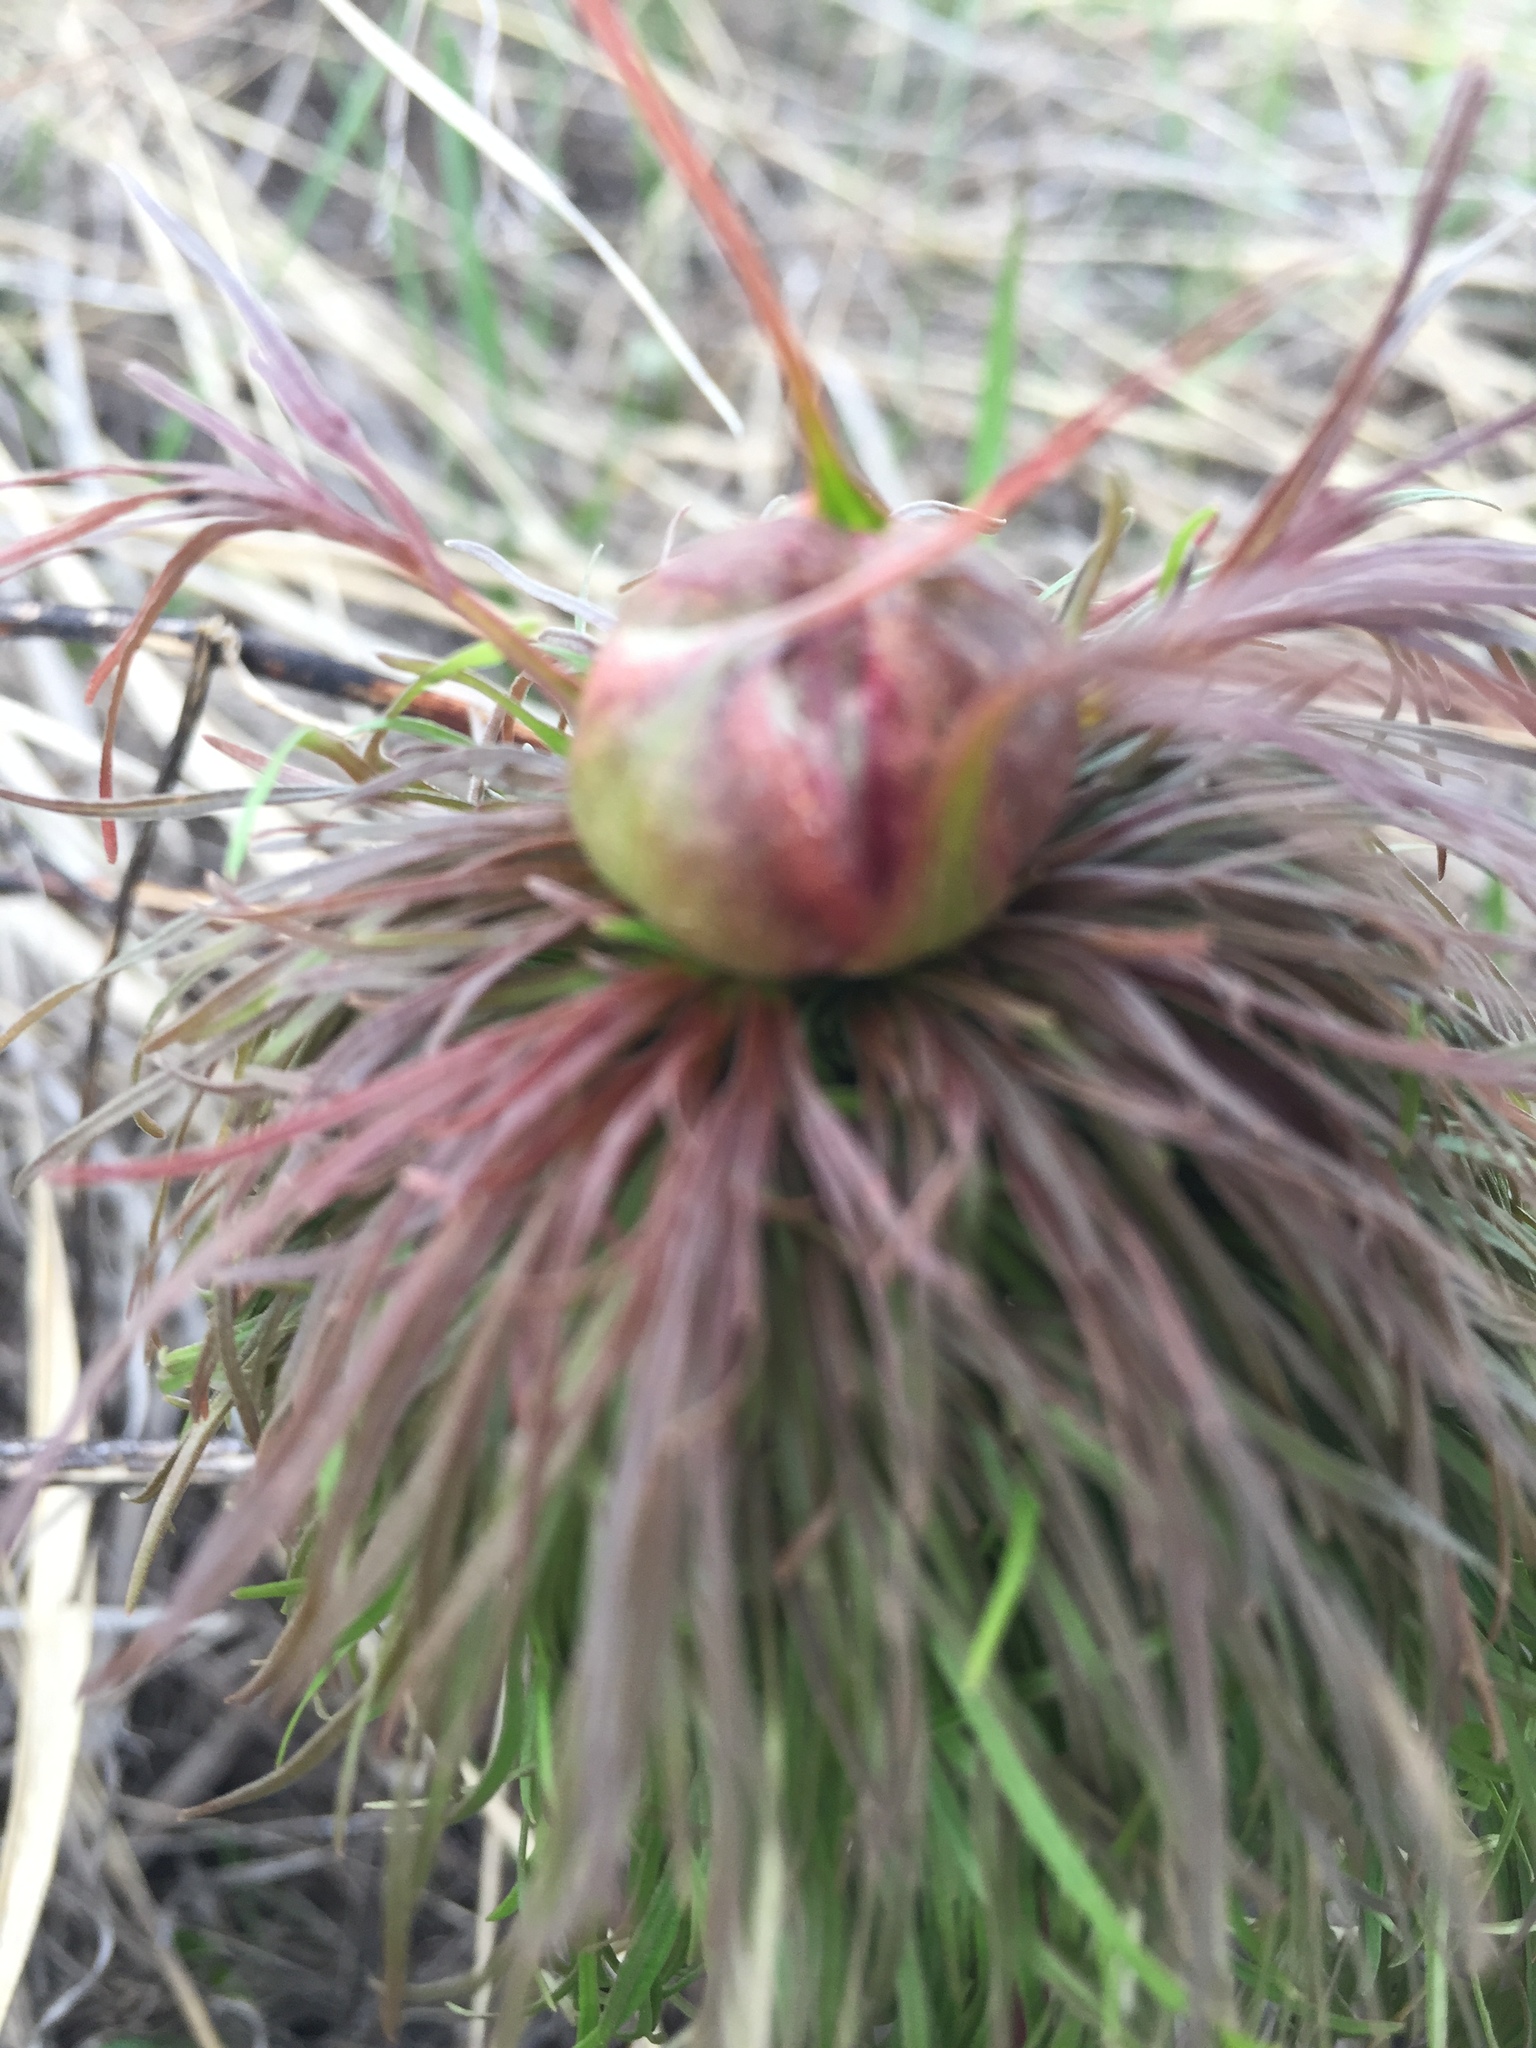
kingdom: Plantae
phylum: Tracheophyta
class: Magnoliopsida
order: Saxifragales
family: Paeoniaceae
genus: Paeonia
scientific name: Paeonia tenuifolia
